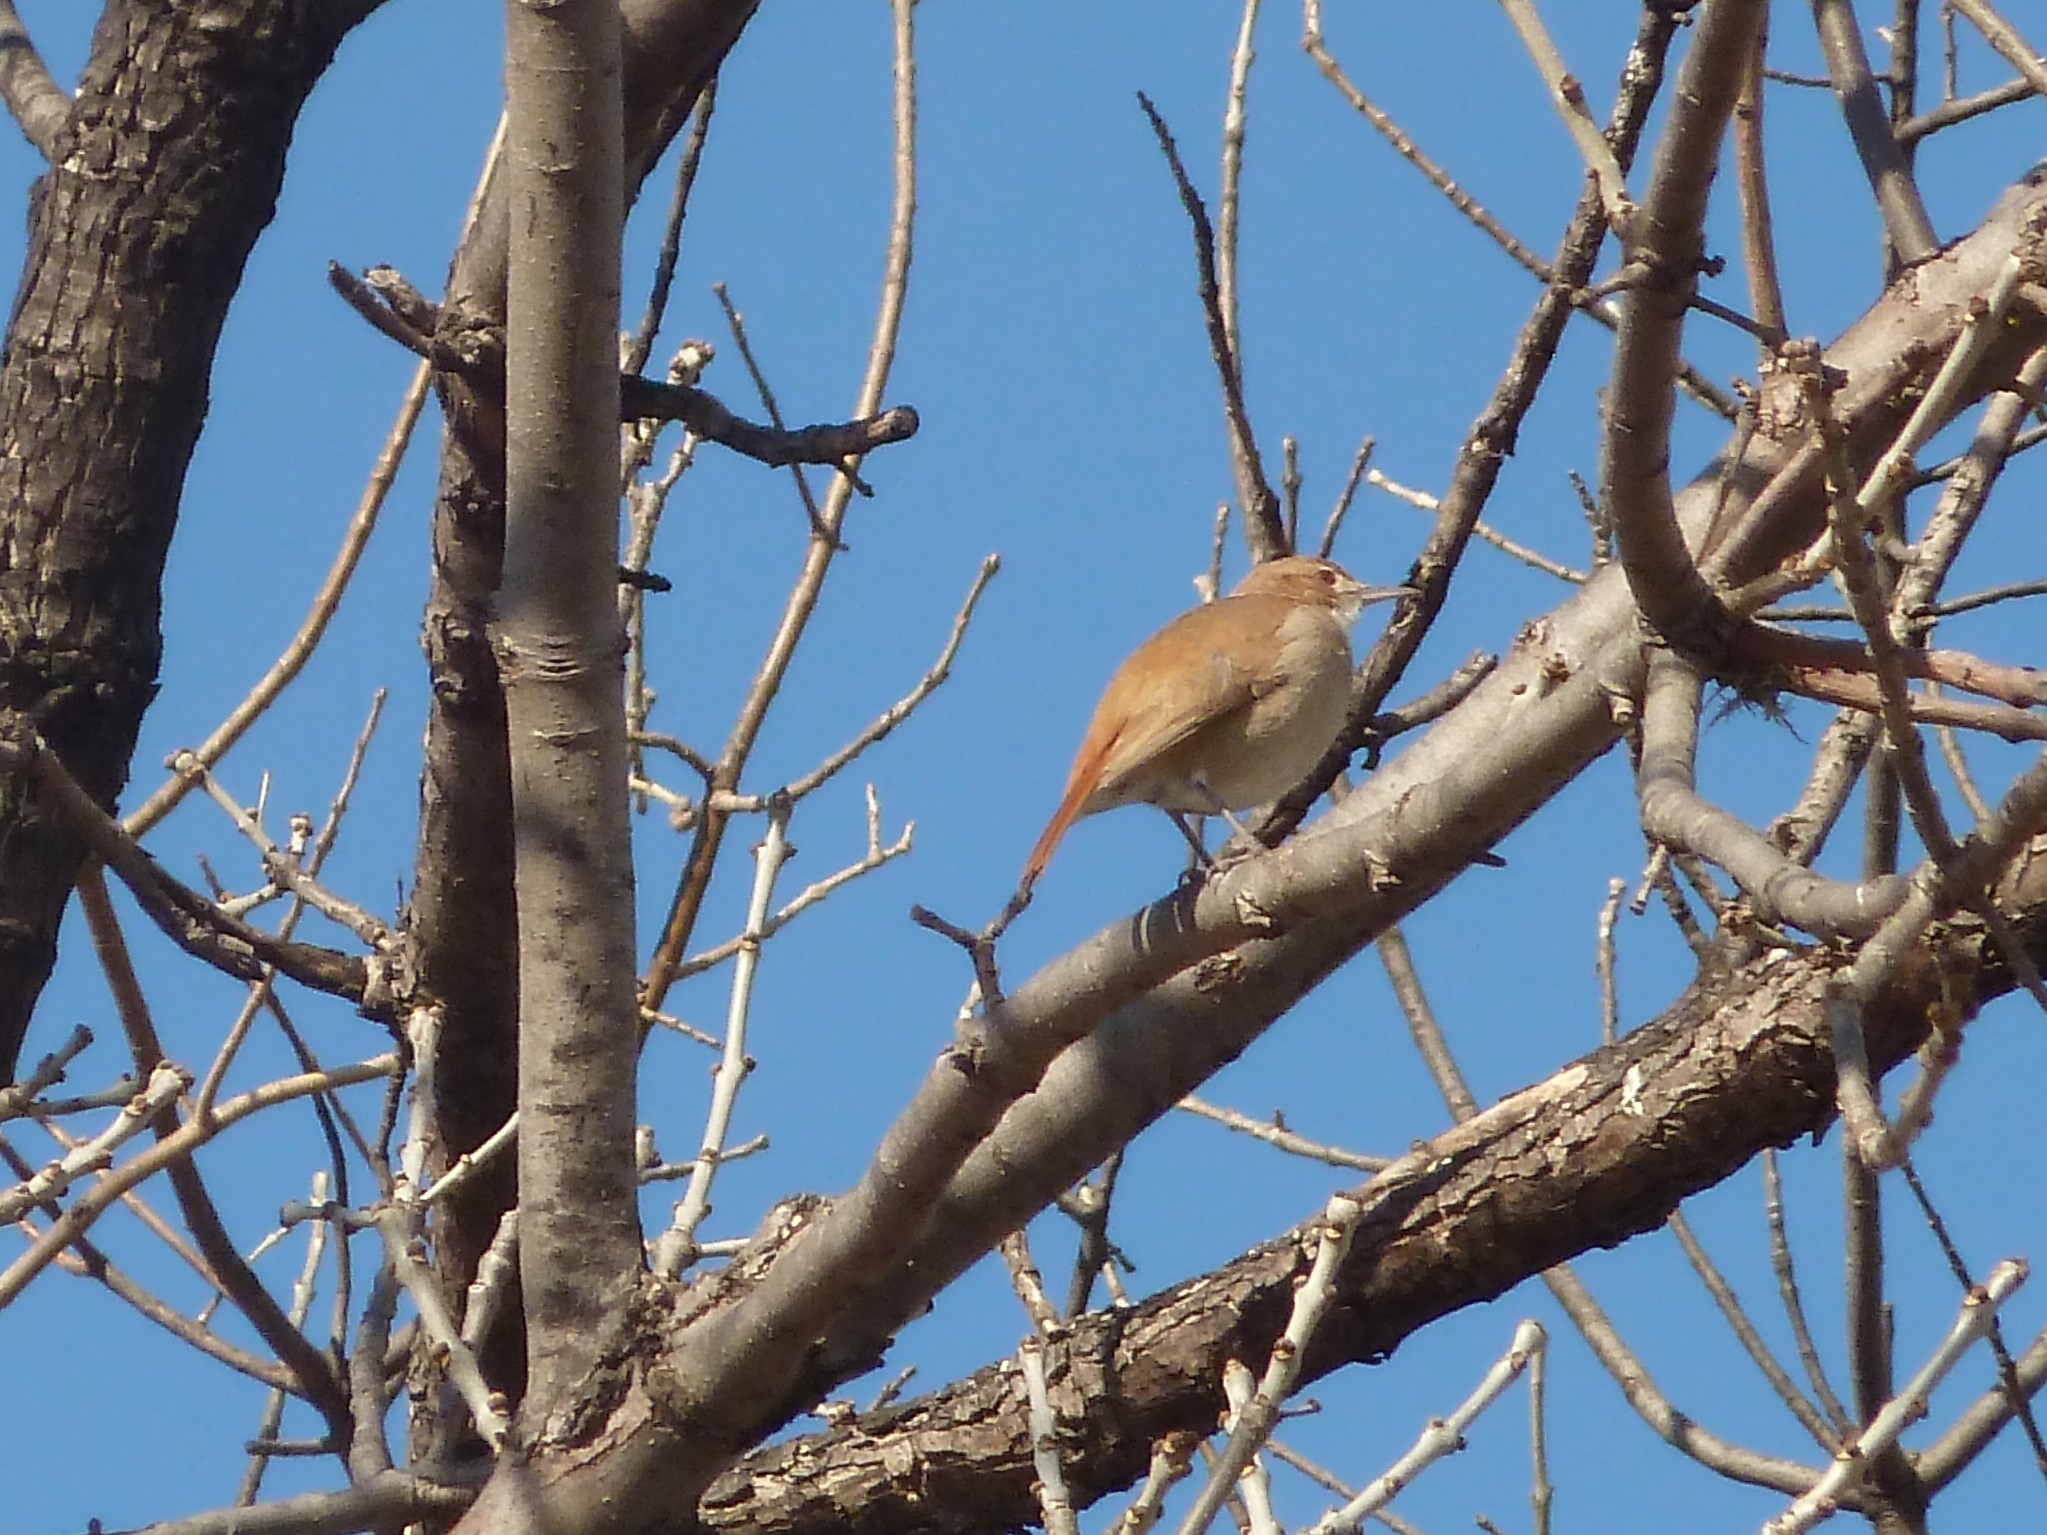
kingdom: Animalia
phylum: Chordata
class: Aves
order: Passeriformes
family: Furnariidae
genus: Furnarius
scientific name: Furnarius rufus
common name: Rufous hornero
